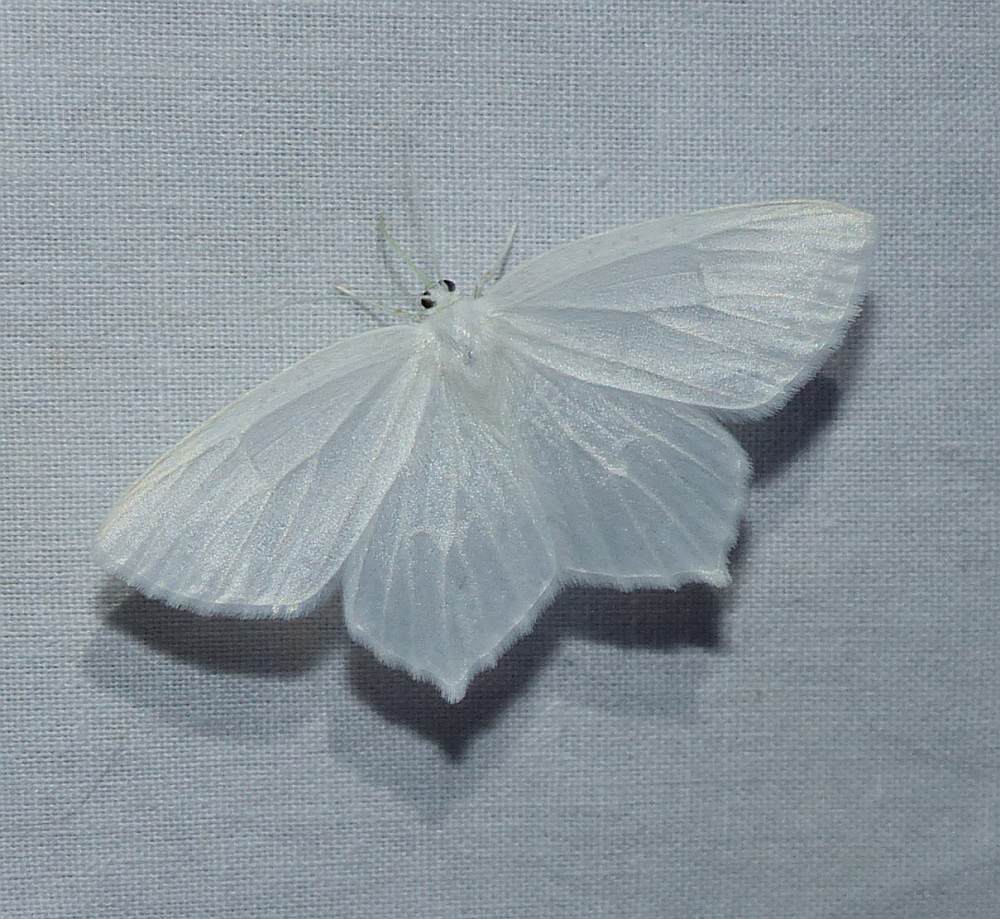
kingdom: Animalia
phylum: Arthropoda
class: Insecta
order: Lepidoptera
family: Geometridae
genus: Eugonobapta
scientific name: Eugonobapta nivosaria
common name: Snowy geometer
